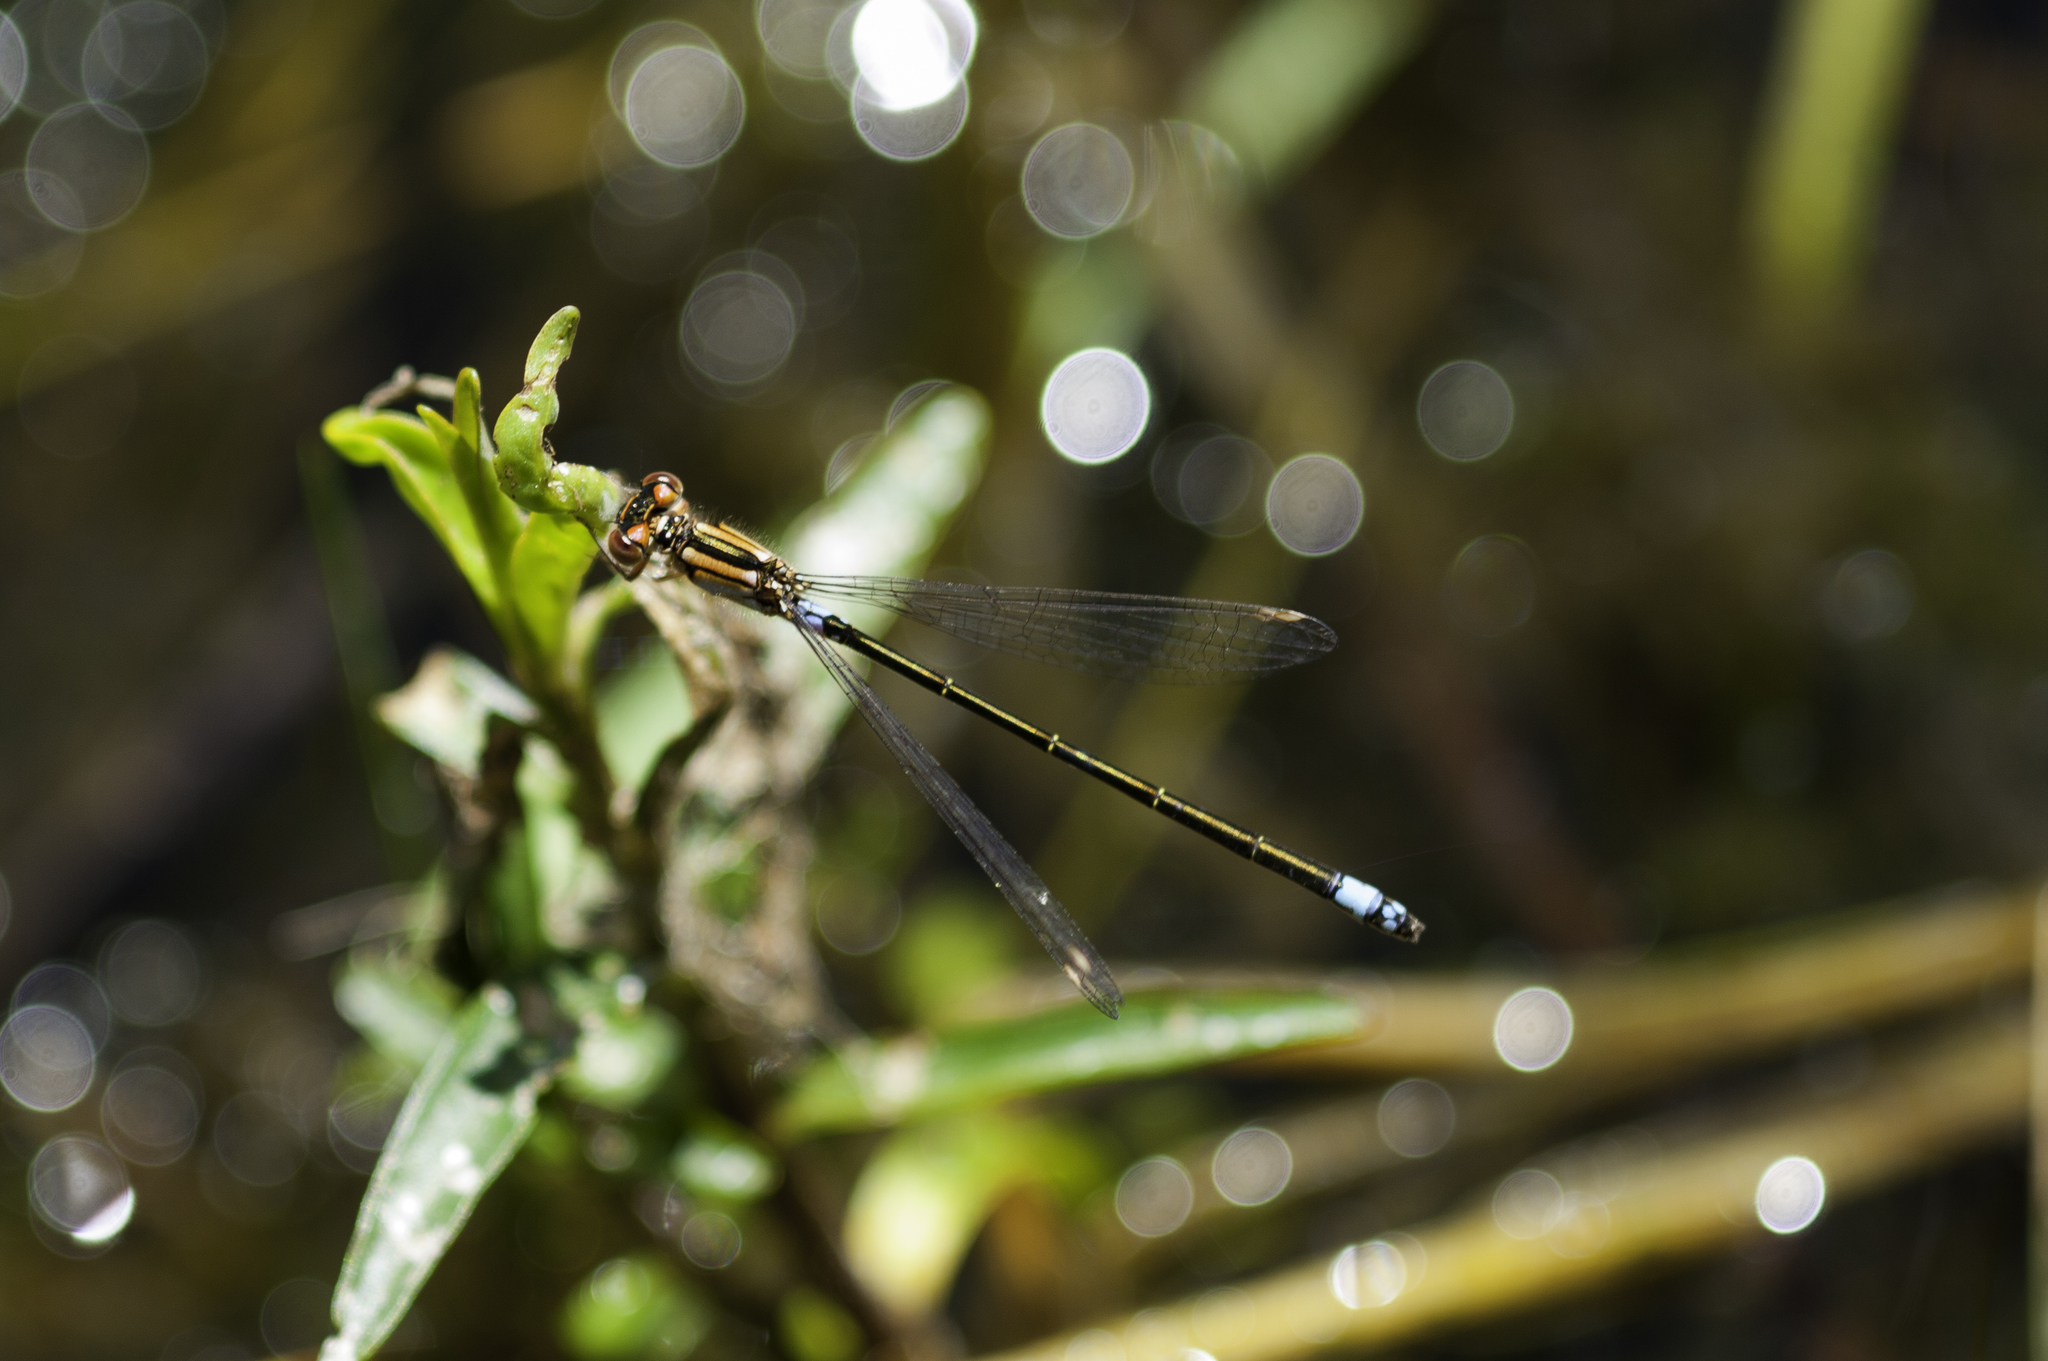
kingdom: Animalia
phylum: Arthropoda
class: Insecta
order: Odonata
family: Coenagrionidae
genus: Ischnura
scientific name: Ischnura damula
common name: Plains forktail
